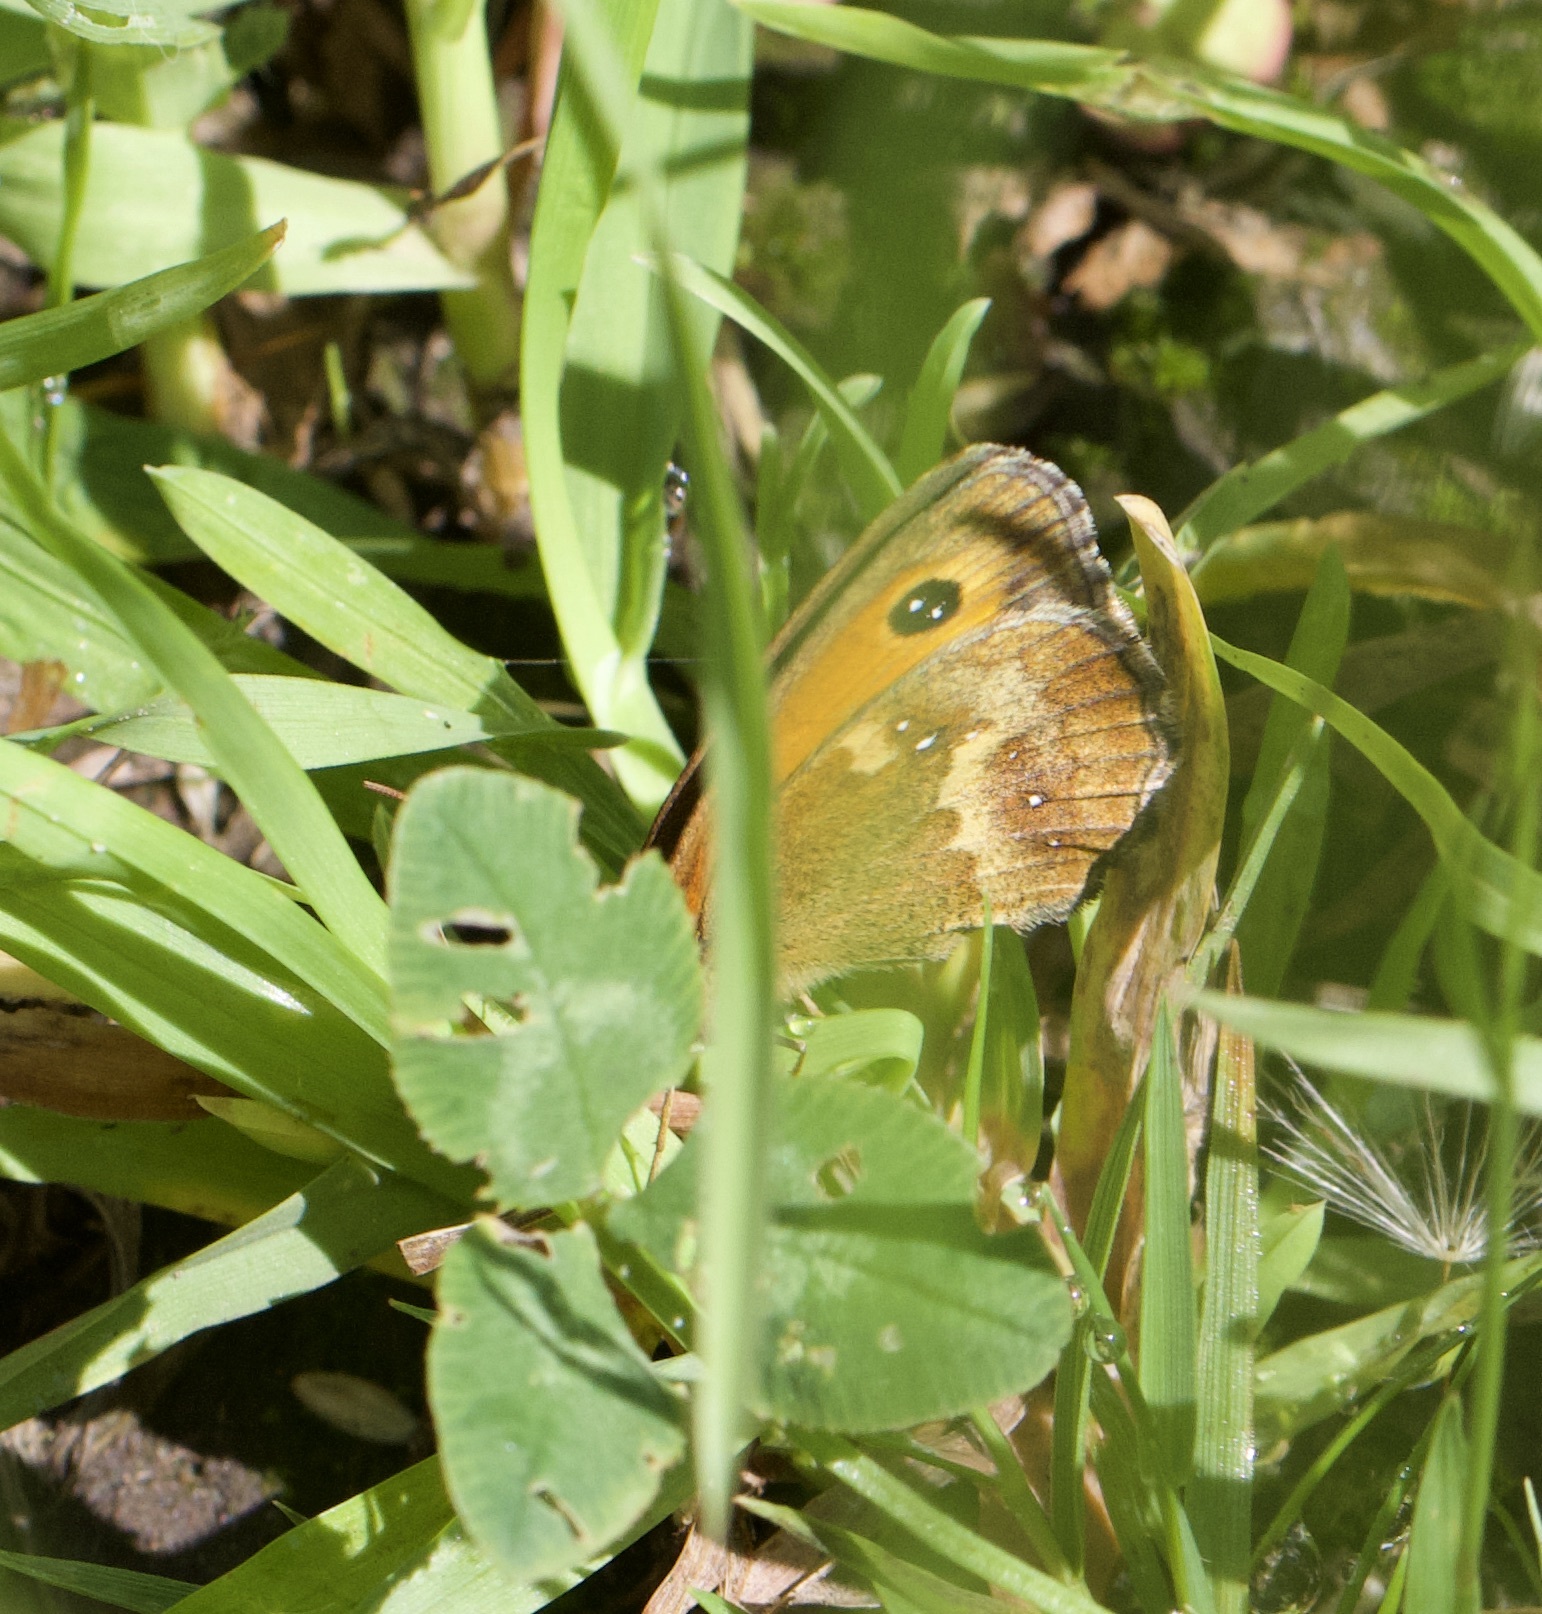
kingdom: Animalia
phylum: Arthropoda
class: Insecta
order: Lepidoptera
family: Nymphalidae
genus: Pyronia
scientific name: Pyronia tithonus
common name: Gatekeeper
